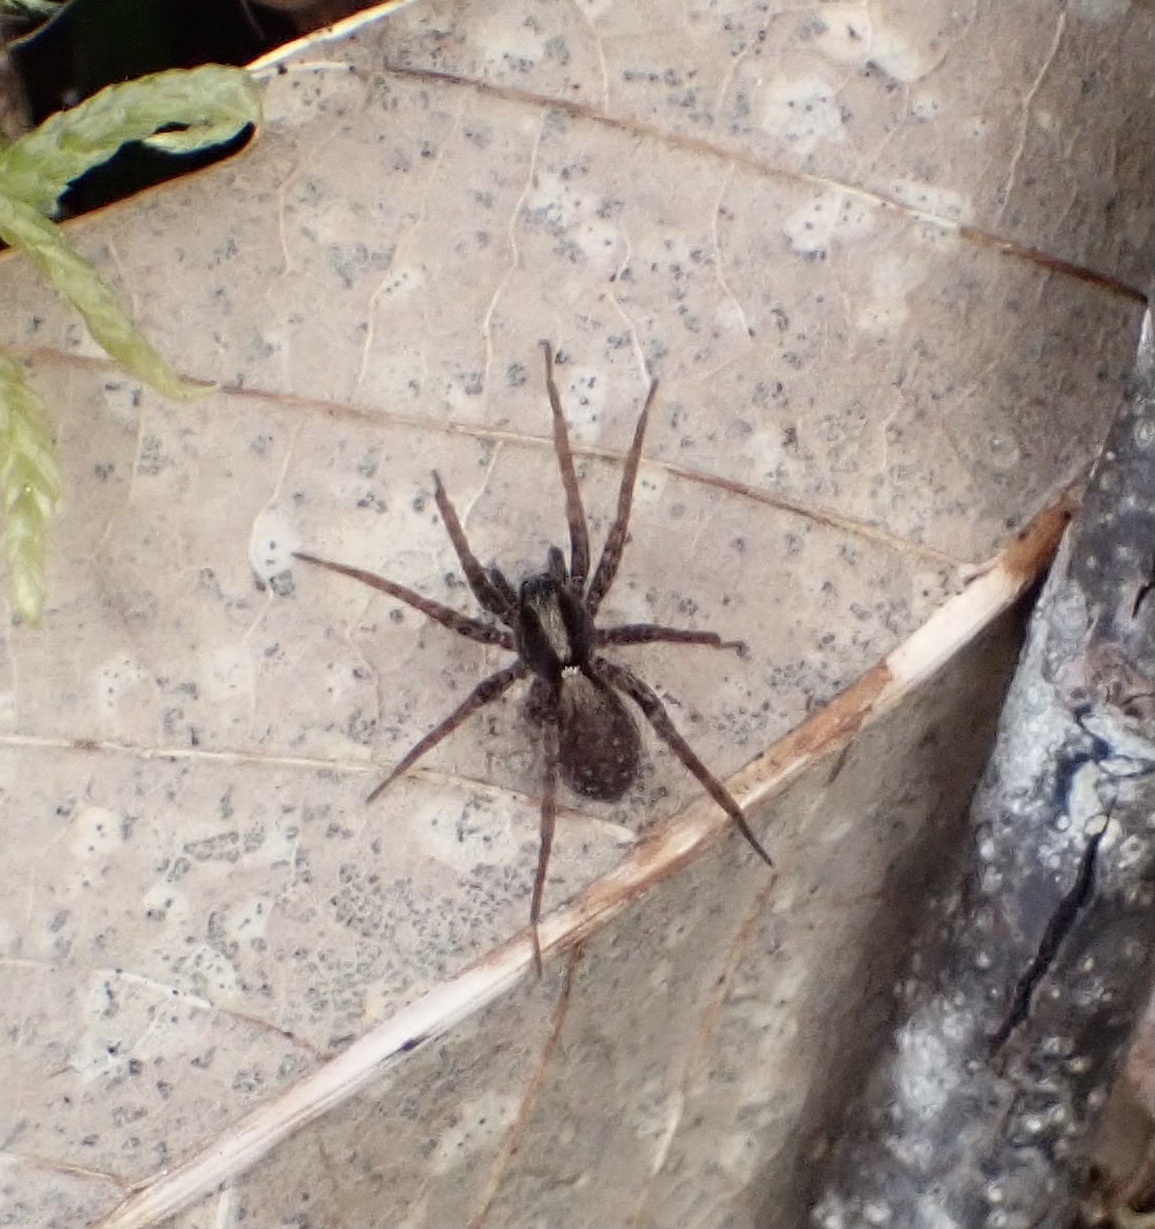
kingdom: Animalia
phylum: Arthropoda
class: Arachnida
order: Araneae
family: Lycosidae
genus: Pardosa
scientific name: Pardosa
